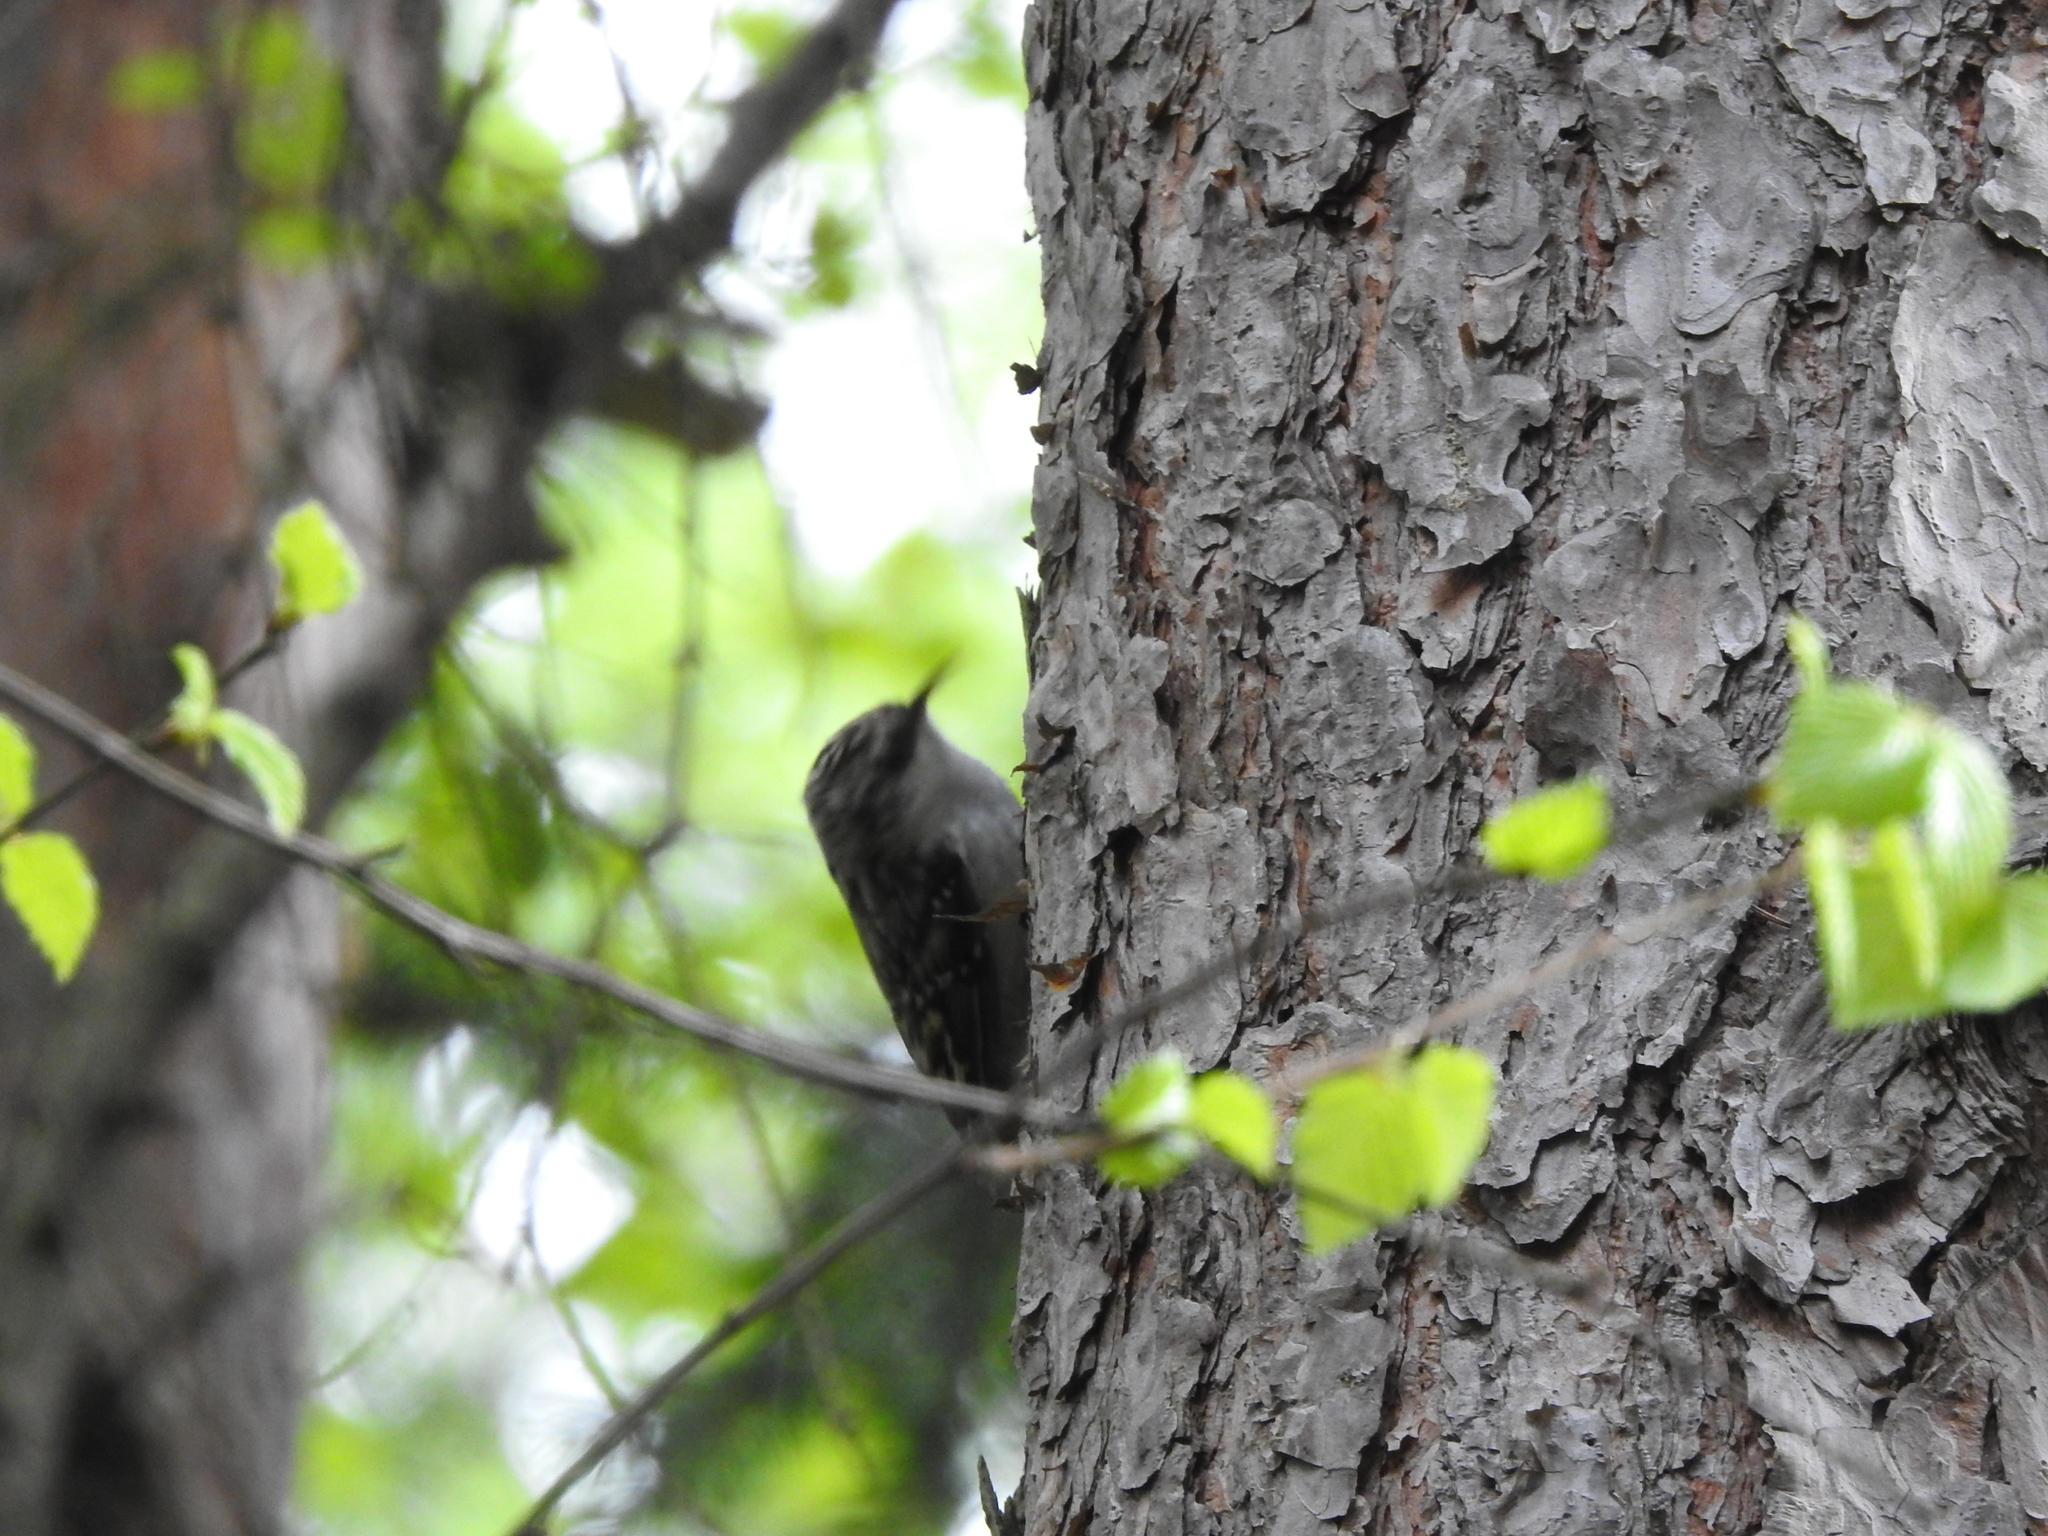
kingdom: Animalia
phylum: Chordata
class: Aves
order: Passeriformes
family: Certhiidae
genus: Certhia
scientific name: Certhia familiaris
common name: Eurasian treecreeper
